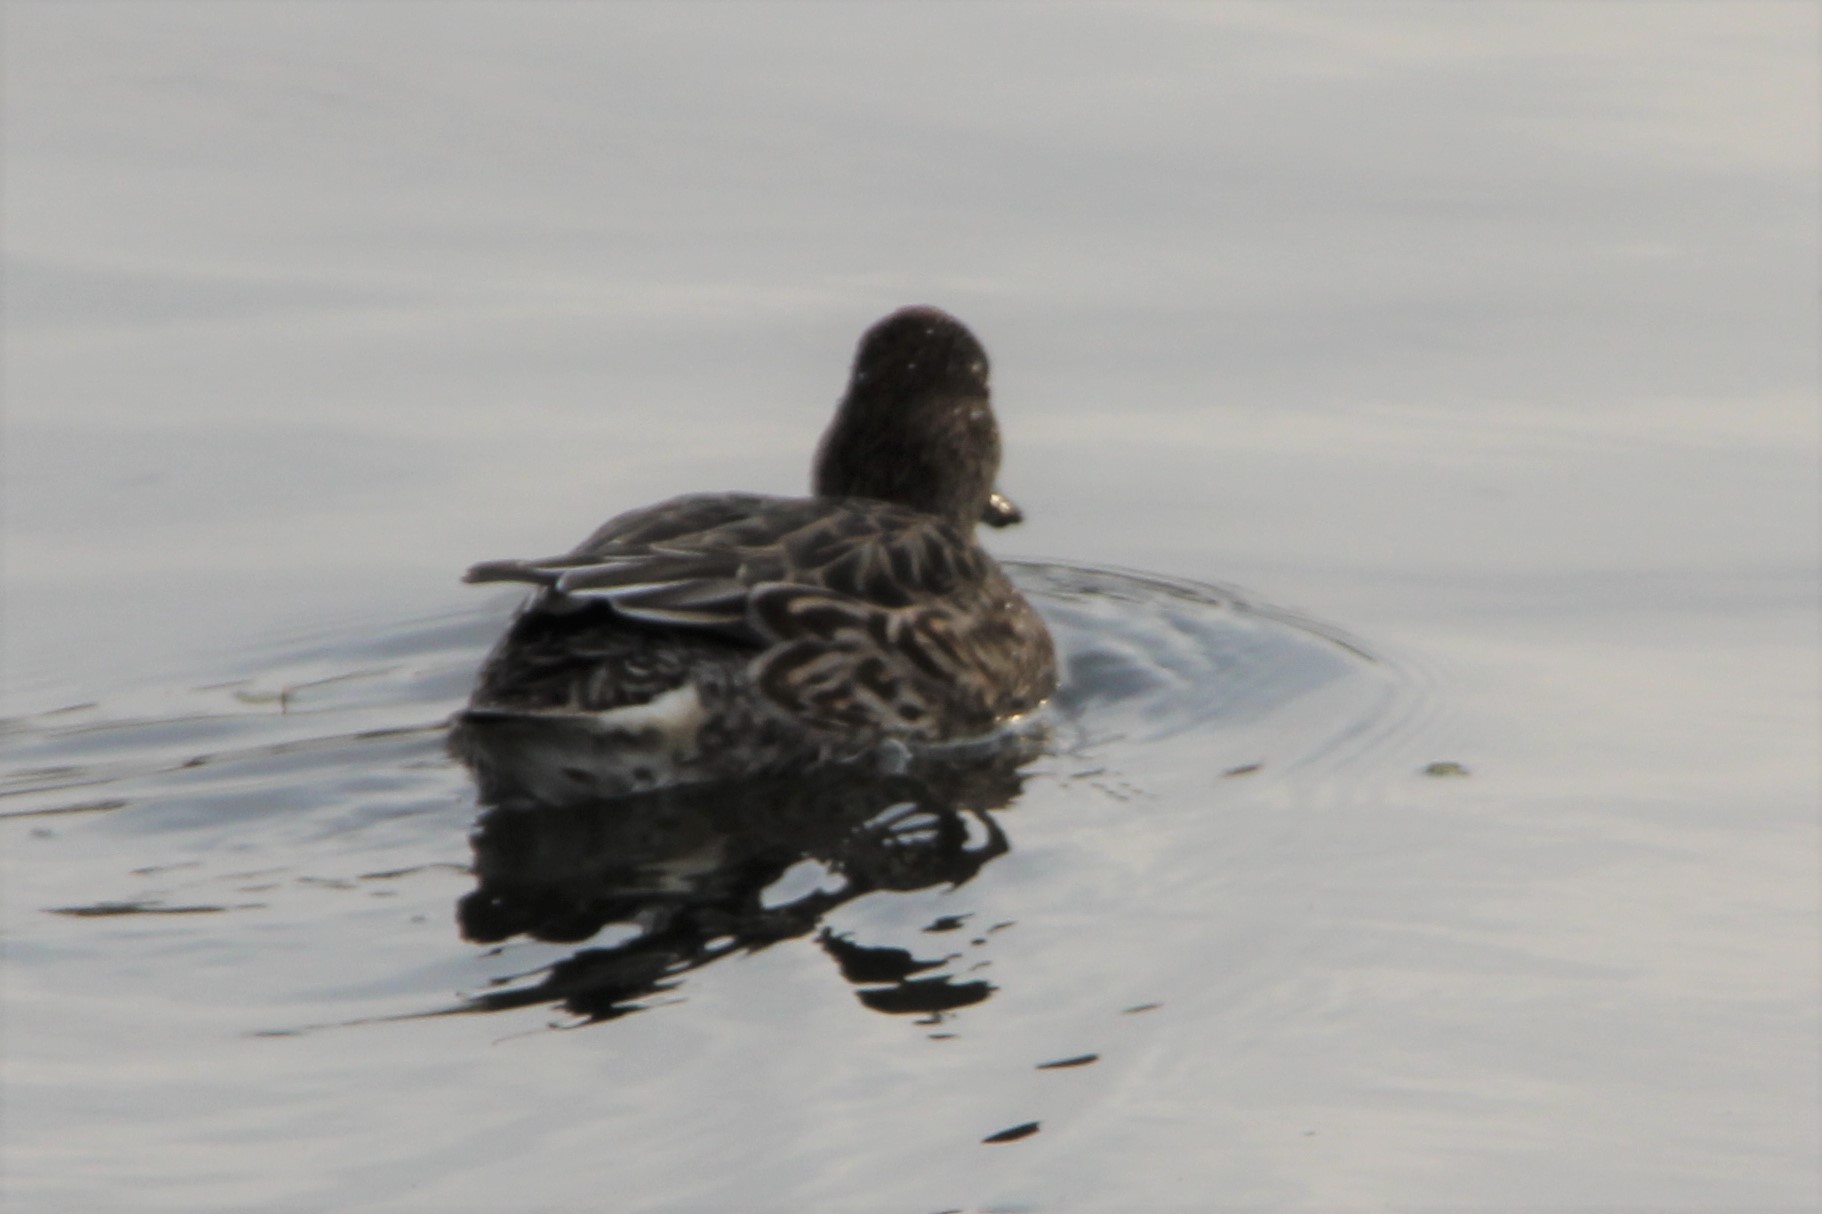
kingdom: Animalia
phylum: Chordata
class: Aves
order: Anseriformes
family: Anatidae
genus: Anas
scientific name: Anas crecca
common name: Eurasian teal
